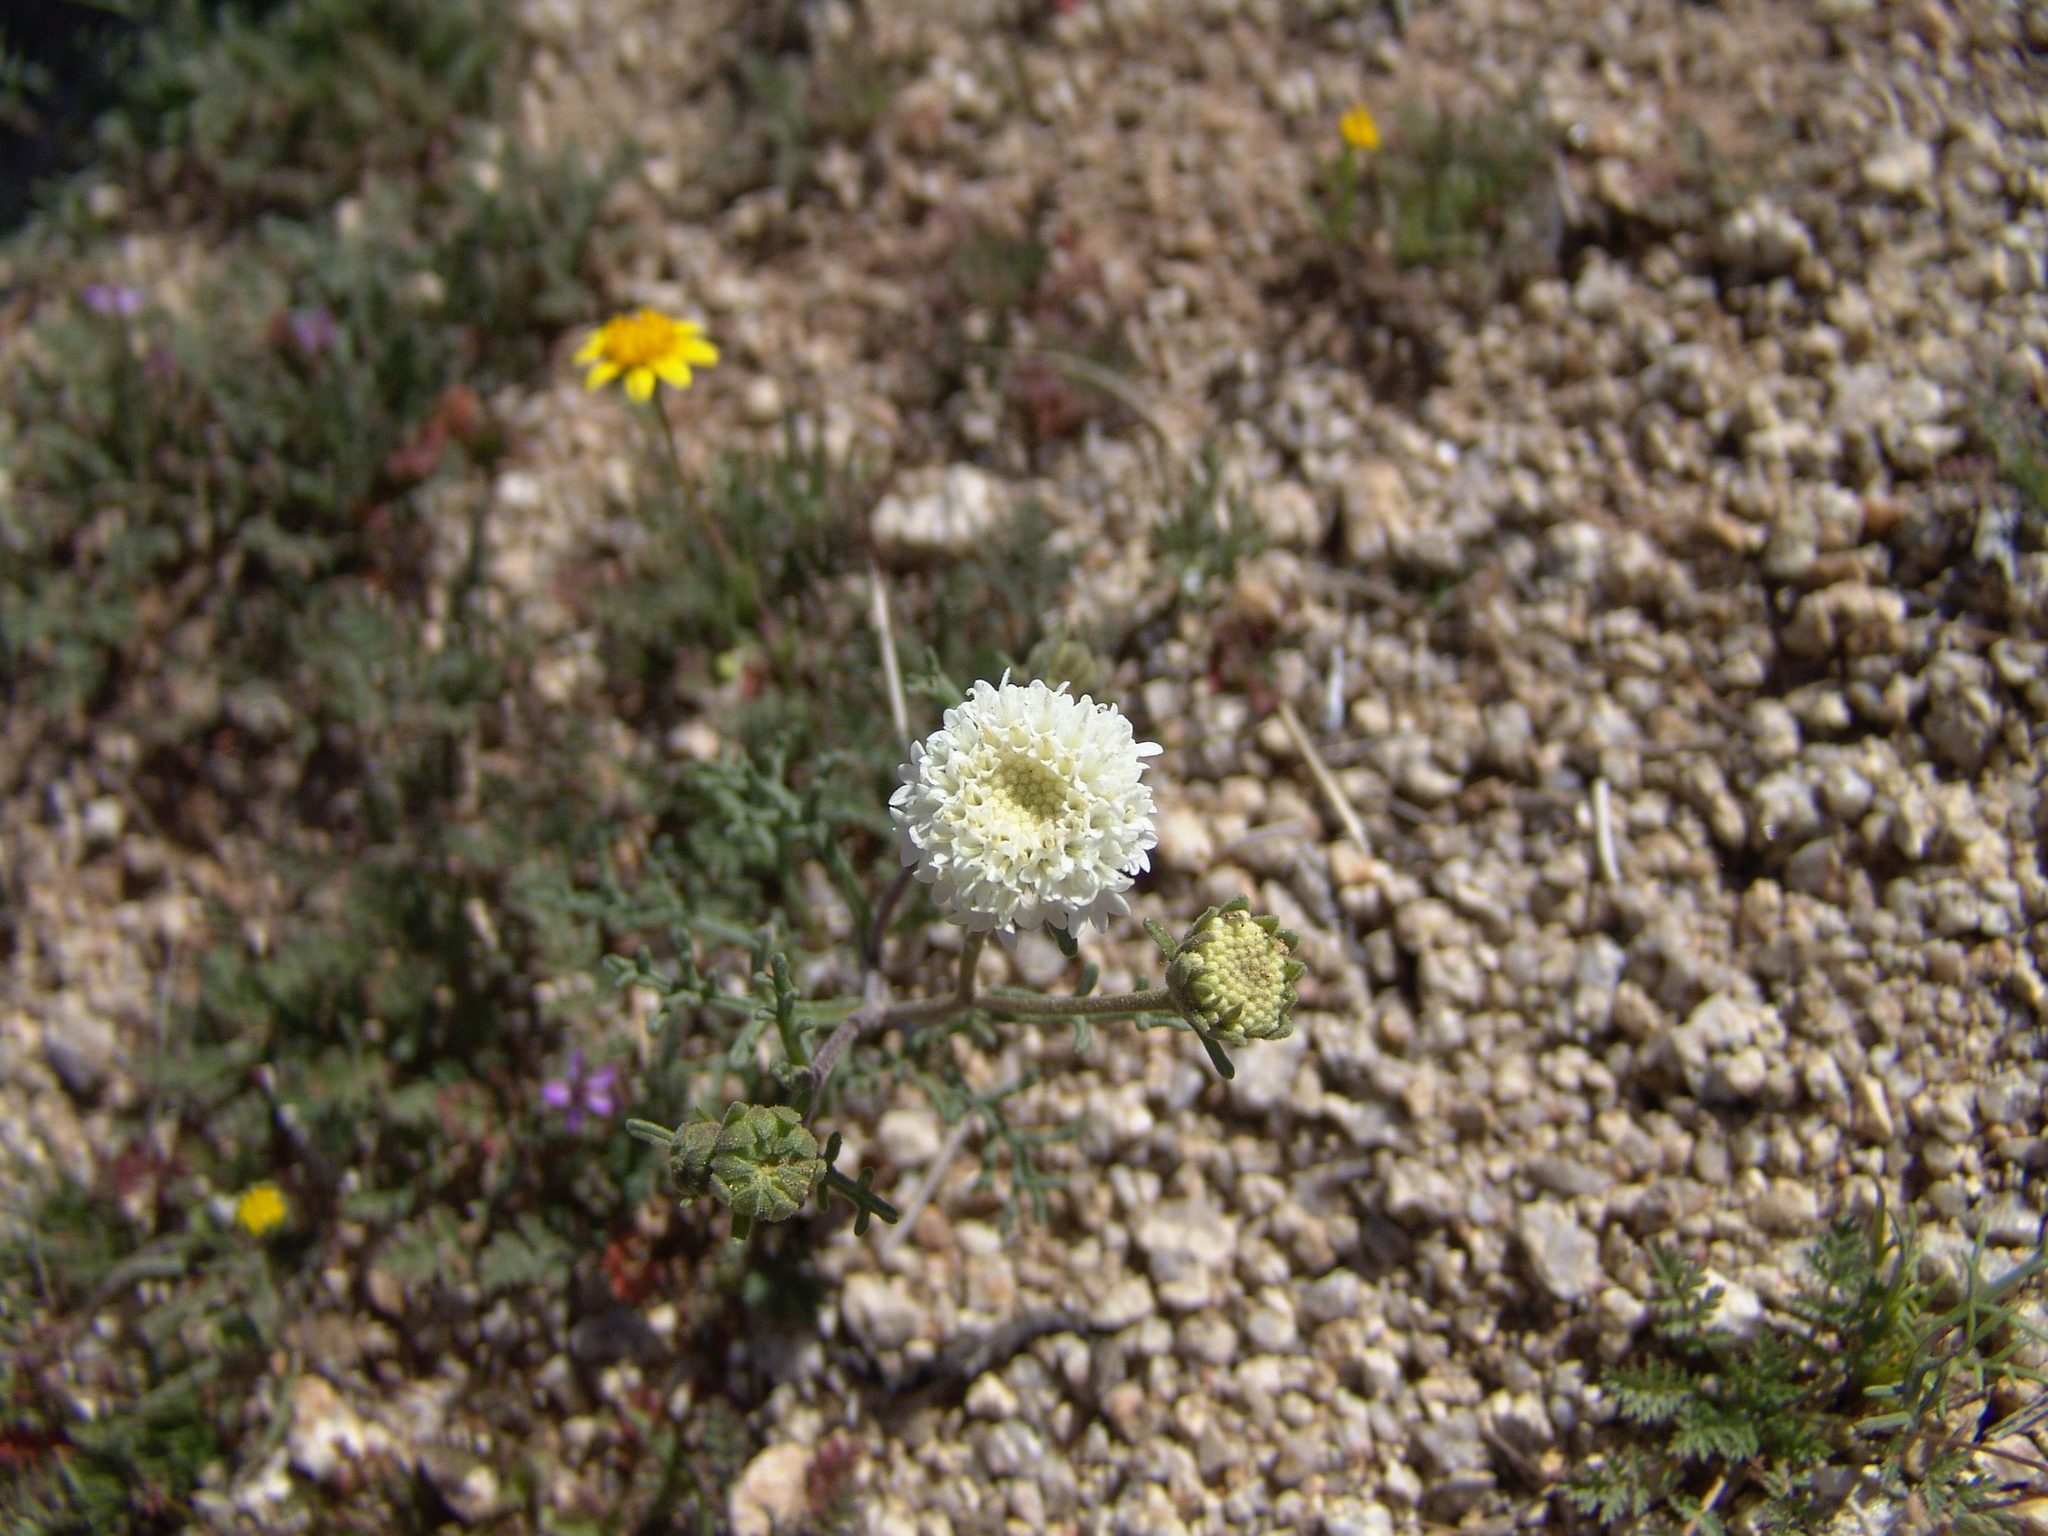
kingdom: Plantae
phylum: Tracheophyta
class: Magnoliopsida
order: Asterales
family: Asteraceae
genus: Chaenactis
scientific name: Chaenactis stevioides
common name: Desert pincushion
